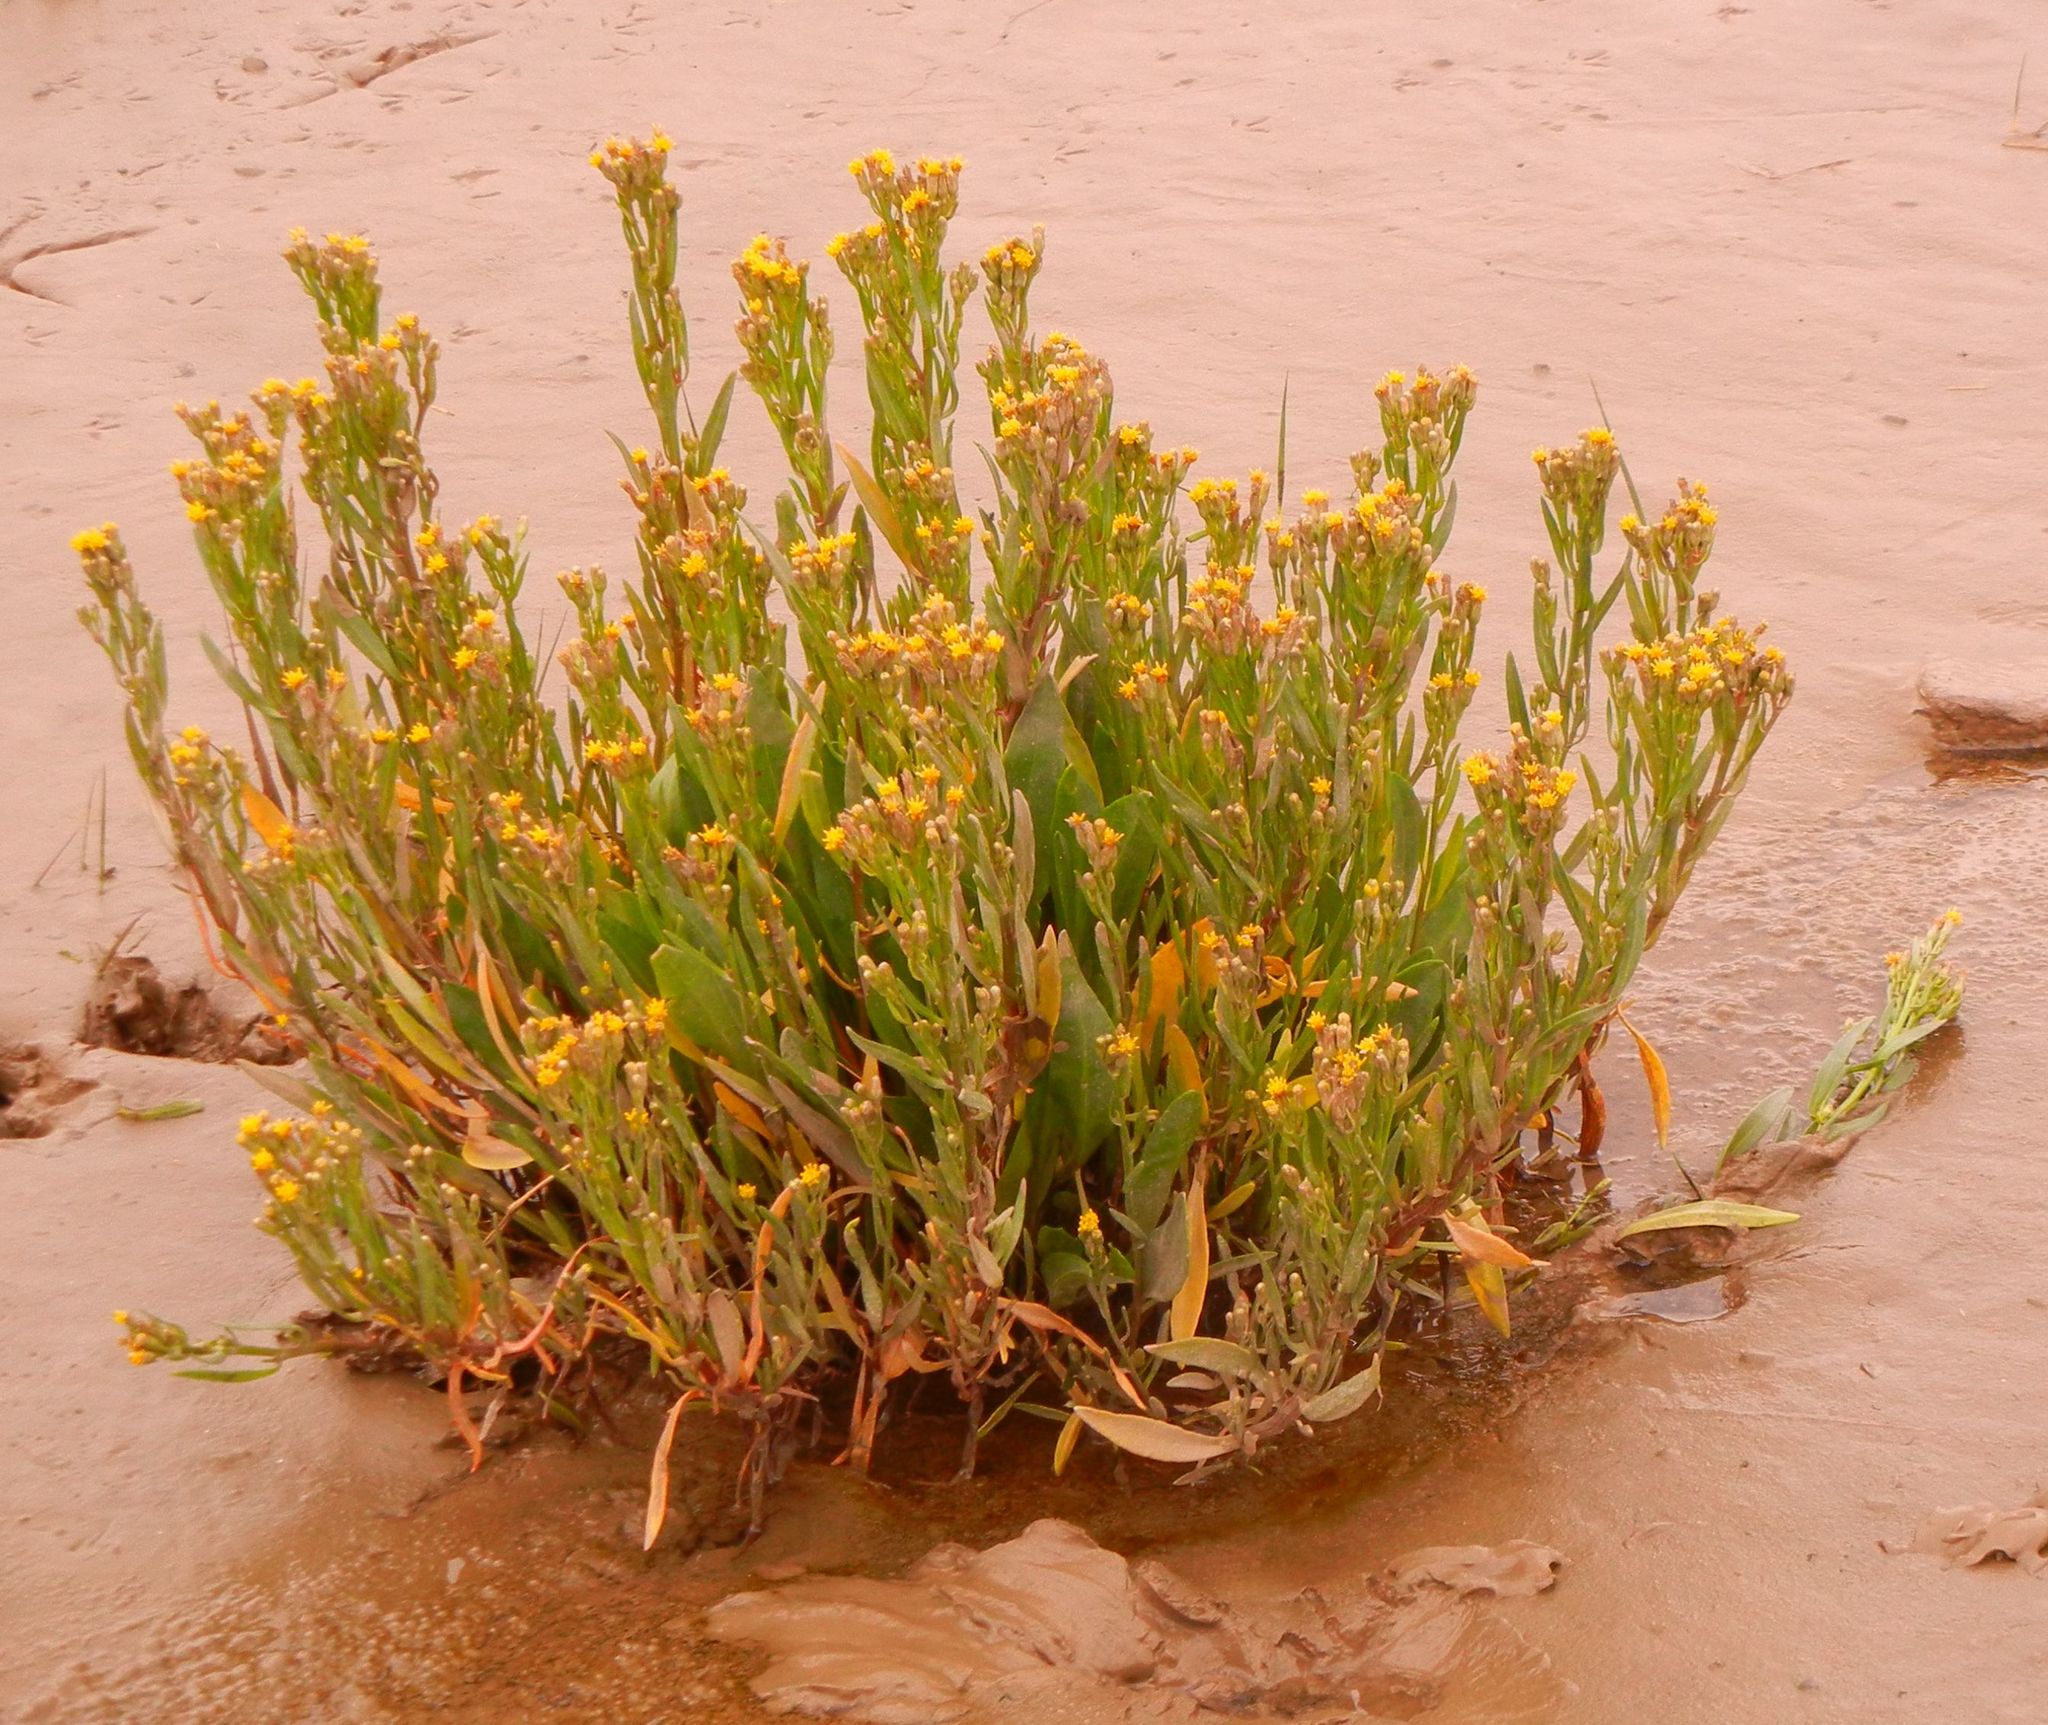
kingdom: Plantae
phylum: Tracheophyta
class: Magnoliopsida
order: Asterales
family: Asteraceae
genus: Tripolium
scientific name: Tripolium pannonicum
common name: Sea aster
